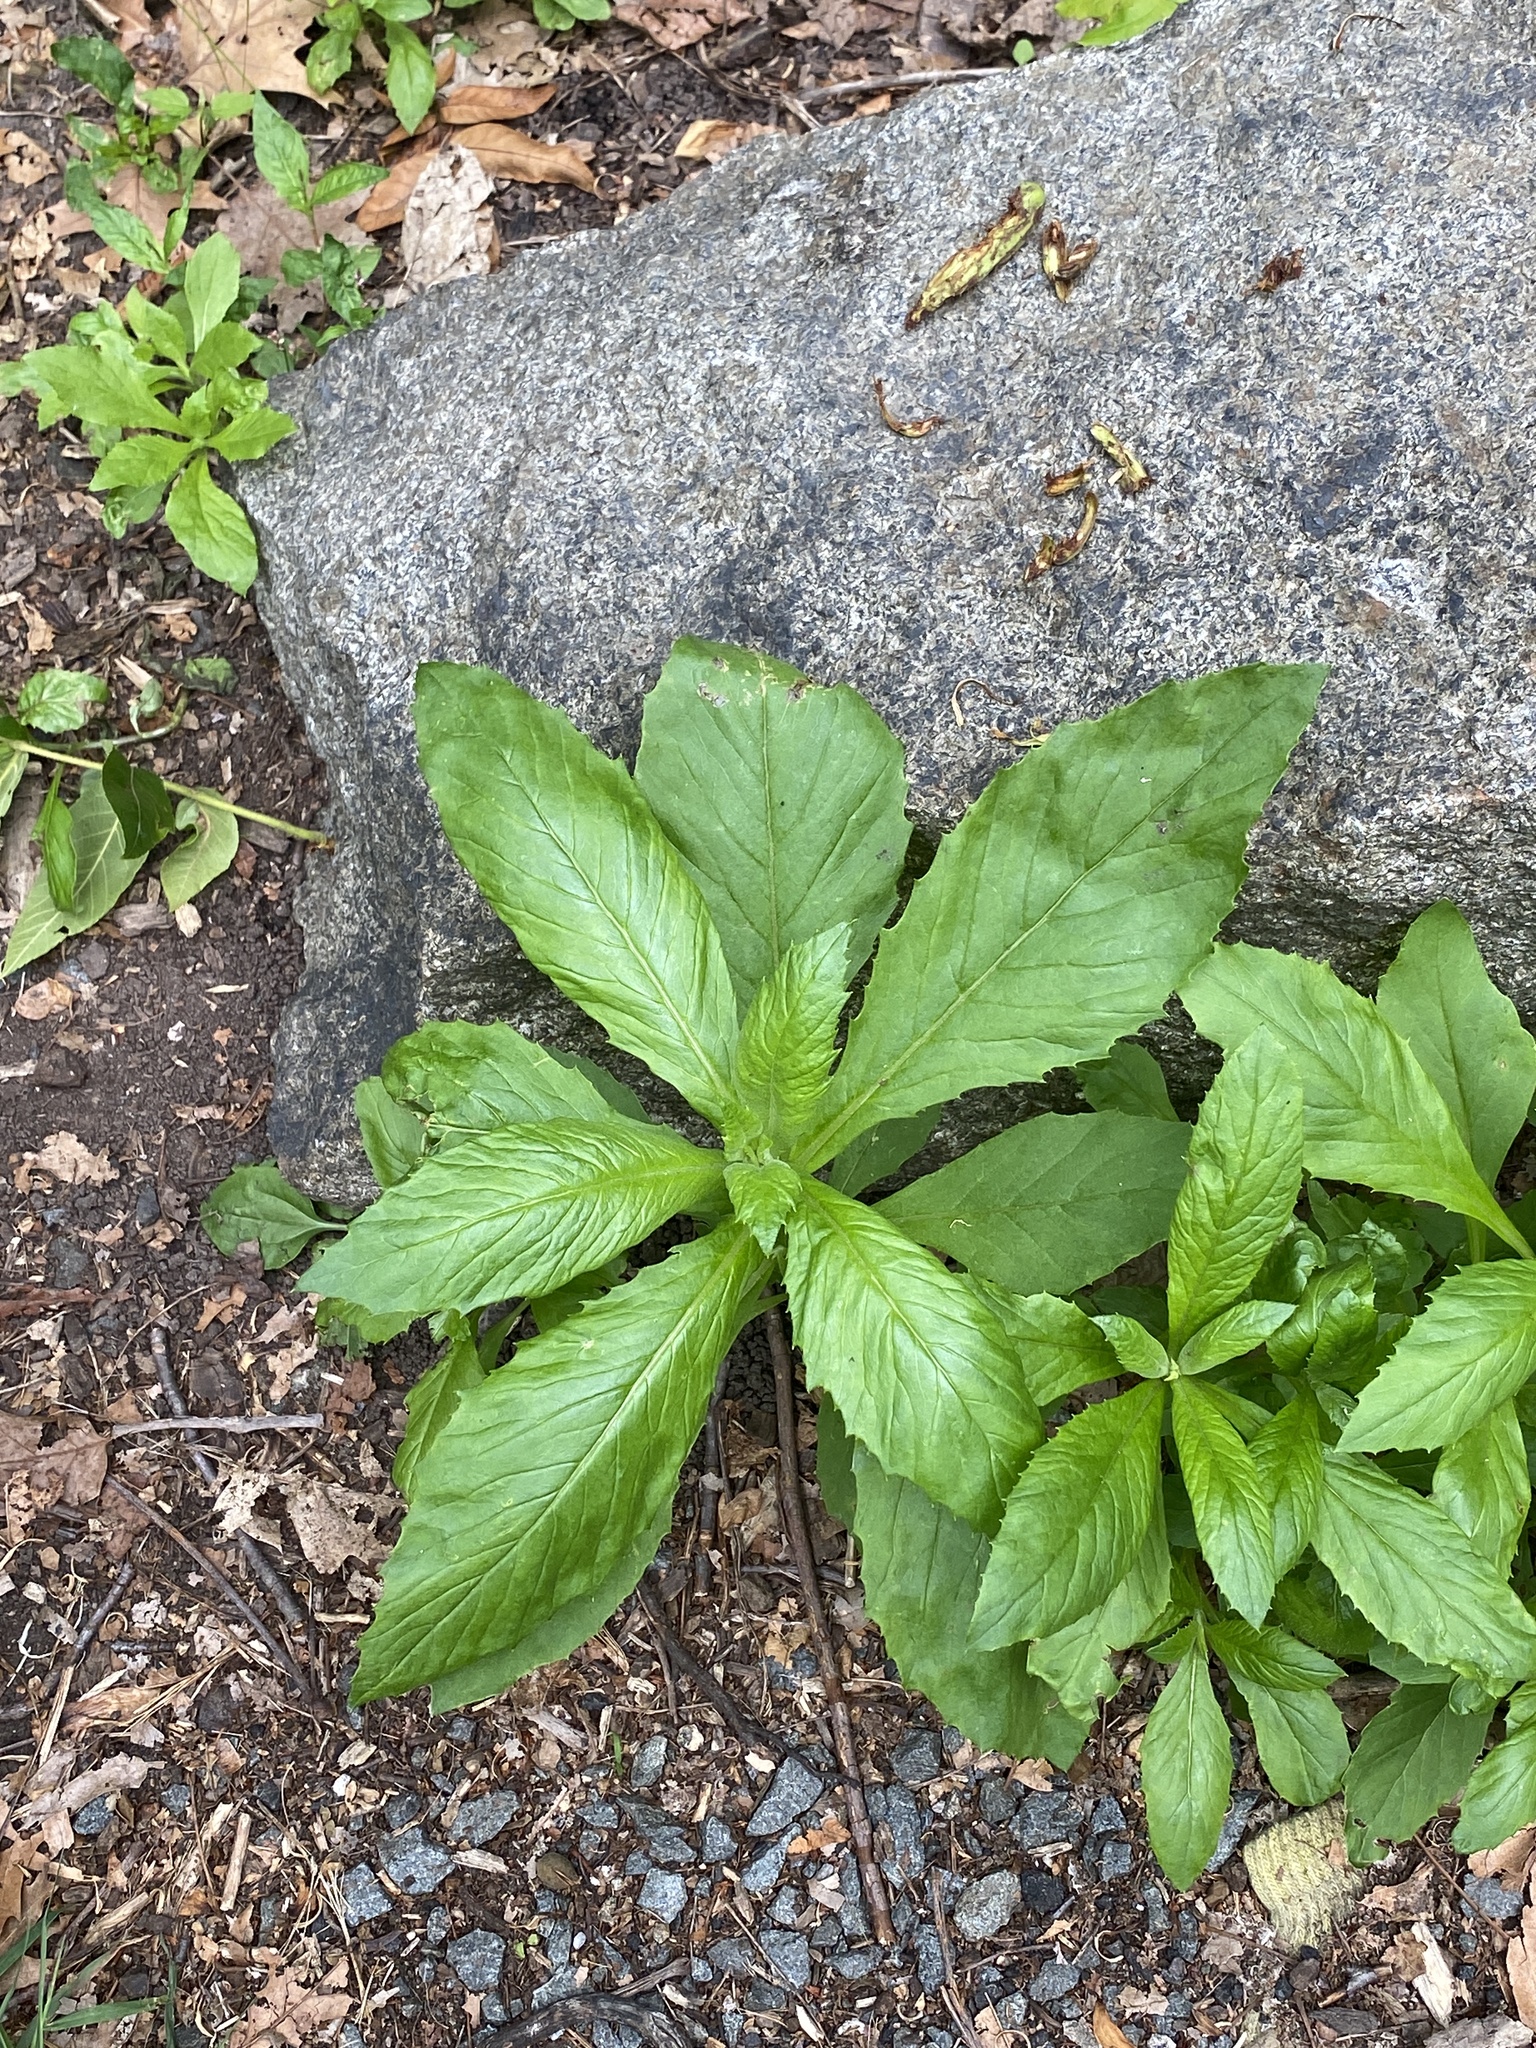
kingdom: Plantae
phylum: Tracheophyta
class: Magnoliopsida
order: Asterales
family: Asteraceae
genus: Erechtites
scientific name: Erechtites hieraciifolius
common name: American burnweed
